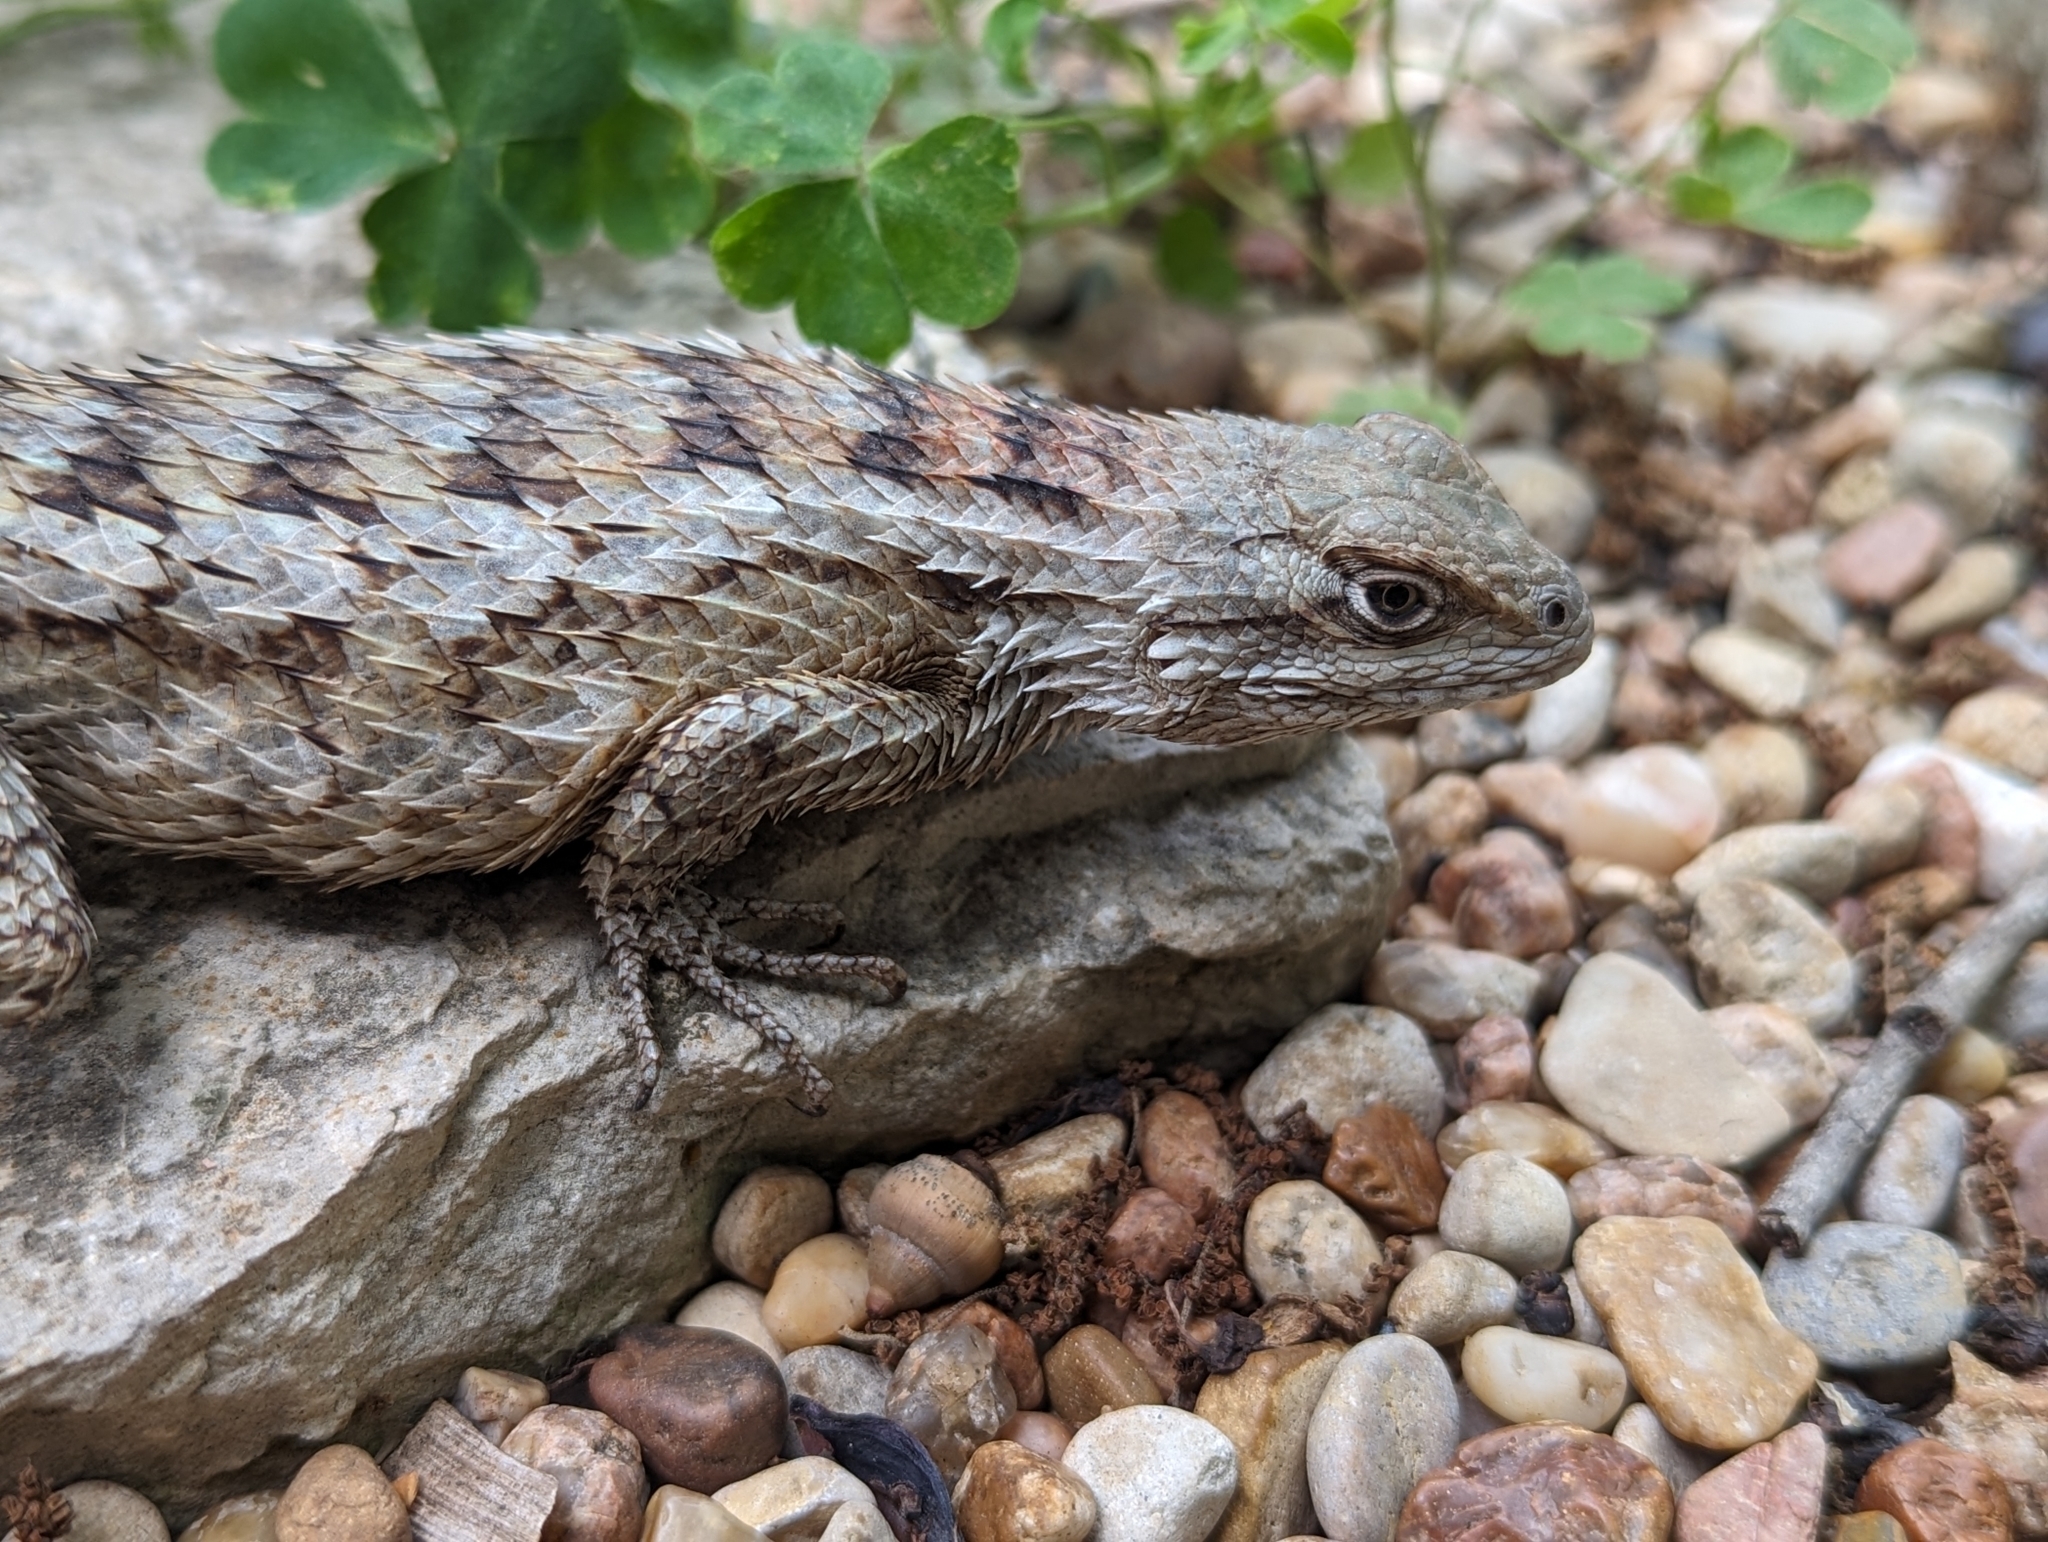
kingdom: Animalia
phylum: Chordata
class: Squamata
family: Phrynosomatidae
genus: Sceloporus
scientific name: Sceloporus olivaceus
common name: Texas spiny lizard
